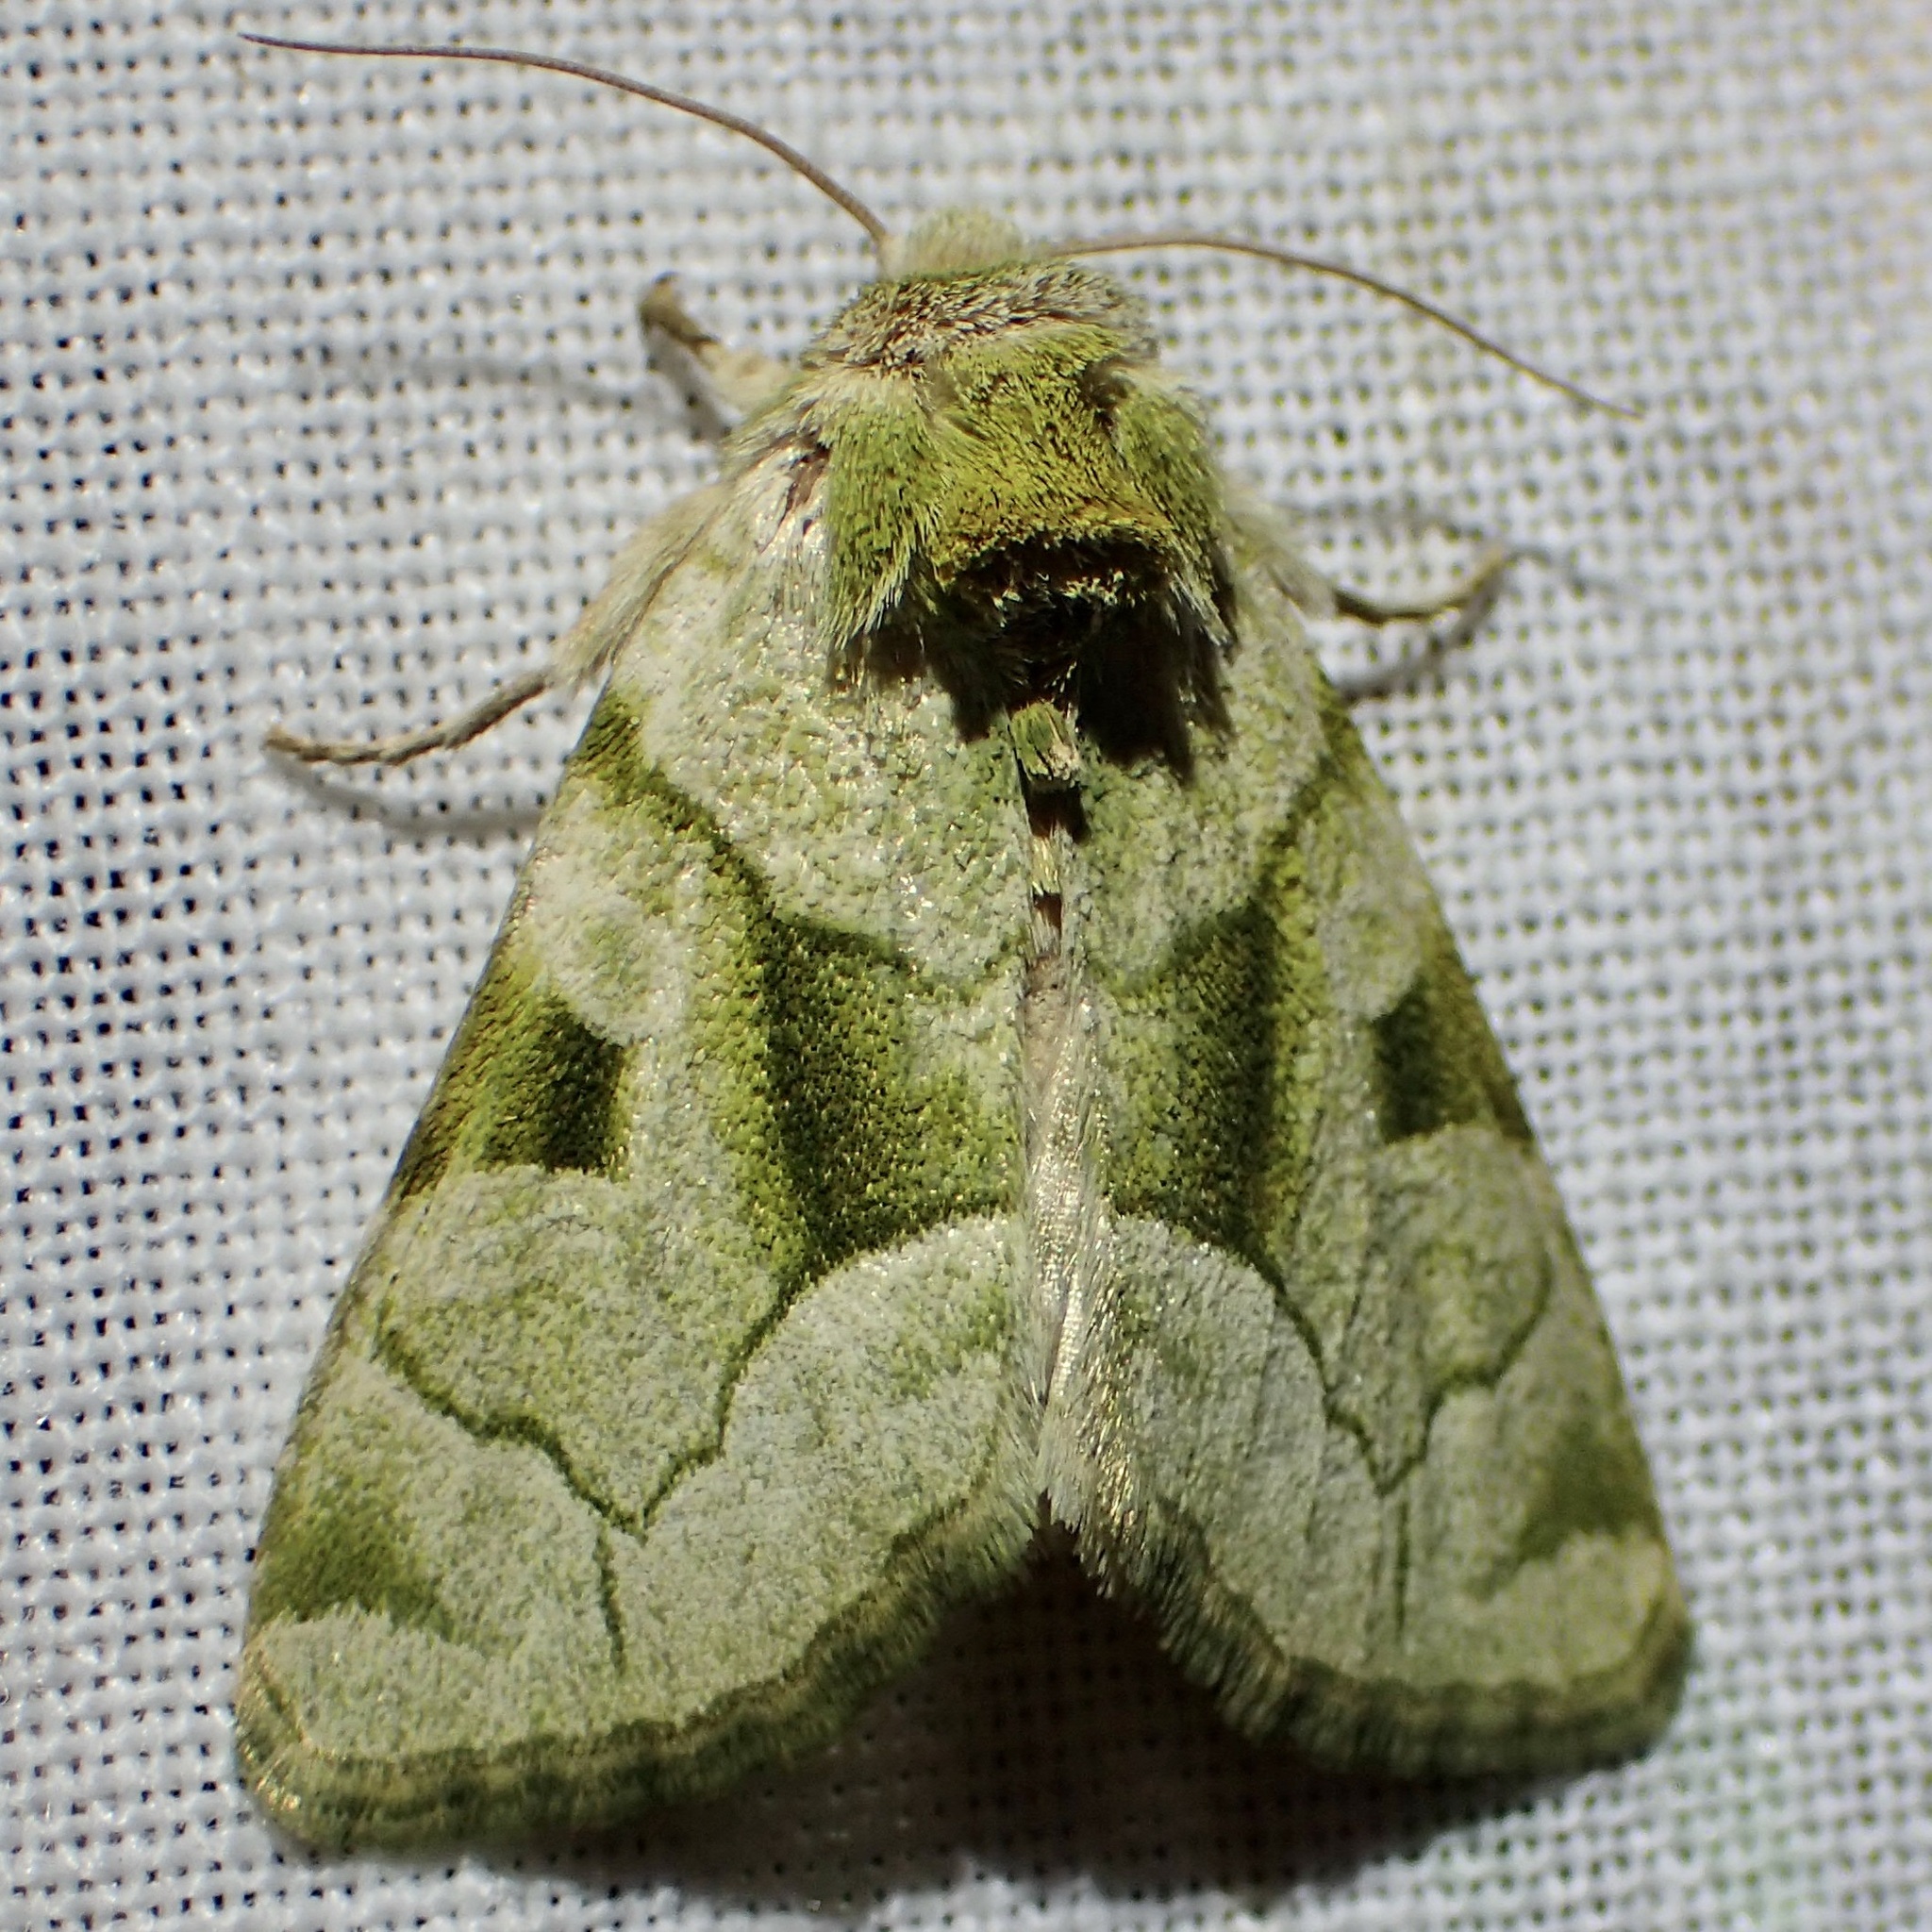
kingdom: Animalia
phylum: Arthropoda
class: Insecta
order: Lepidoptera
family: Noctuidae
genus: Oslaria
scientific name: Oslaria viridifera
